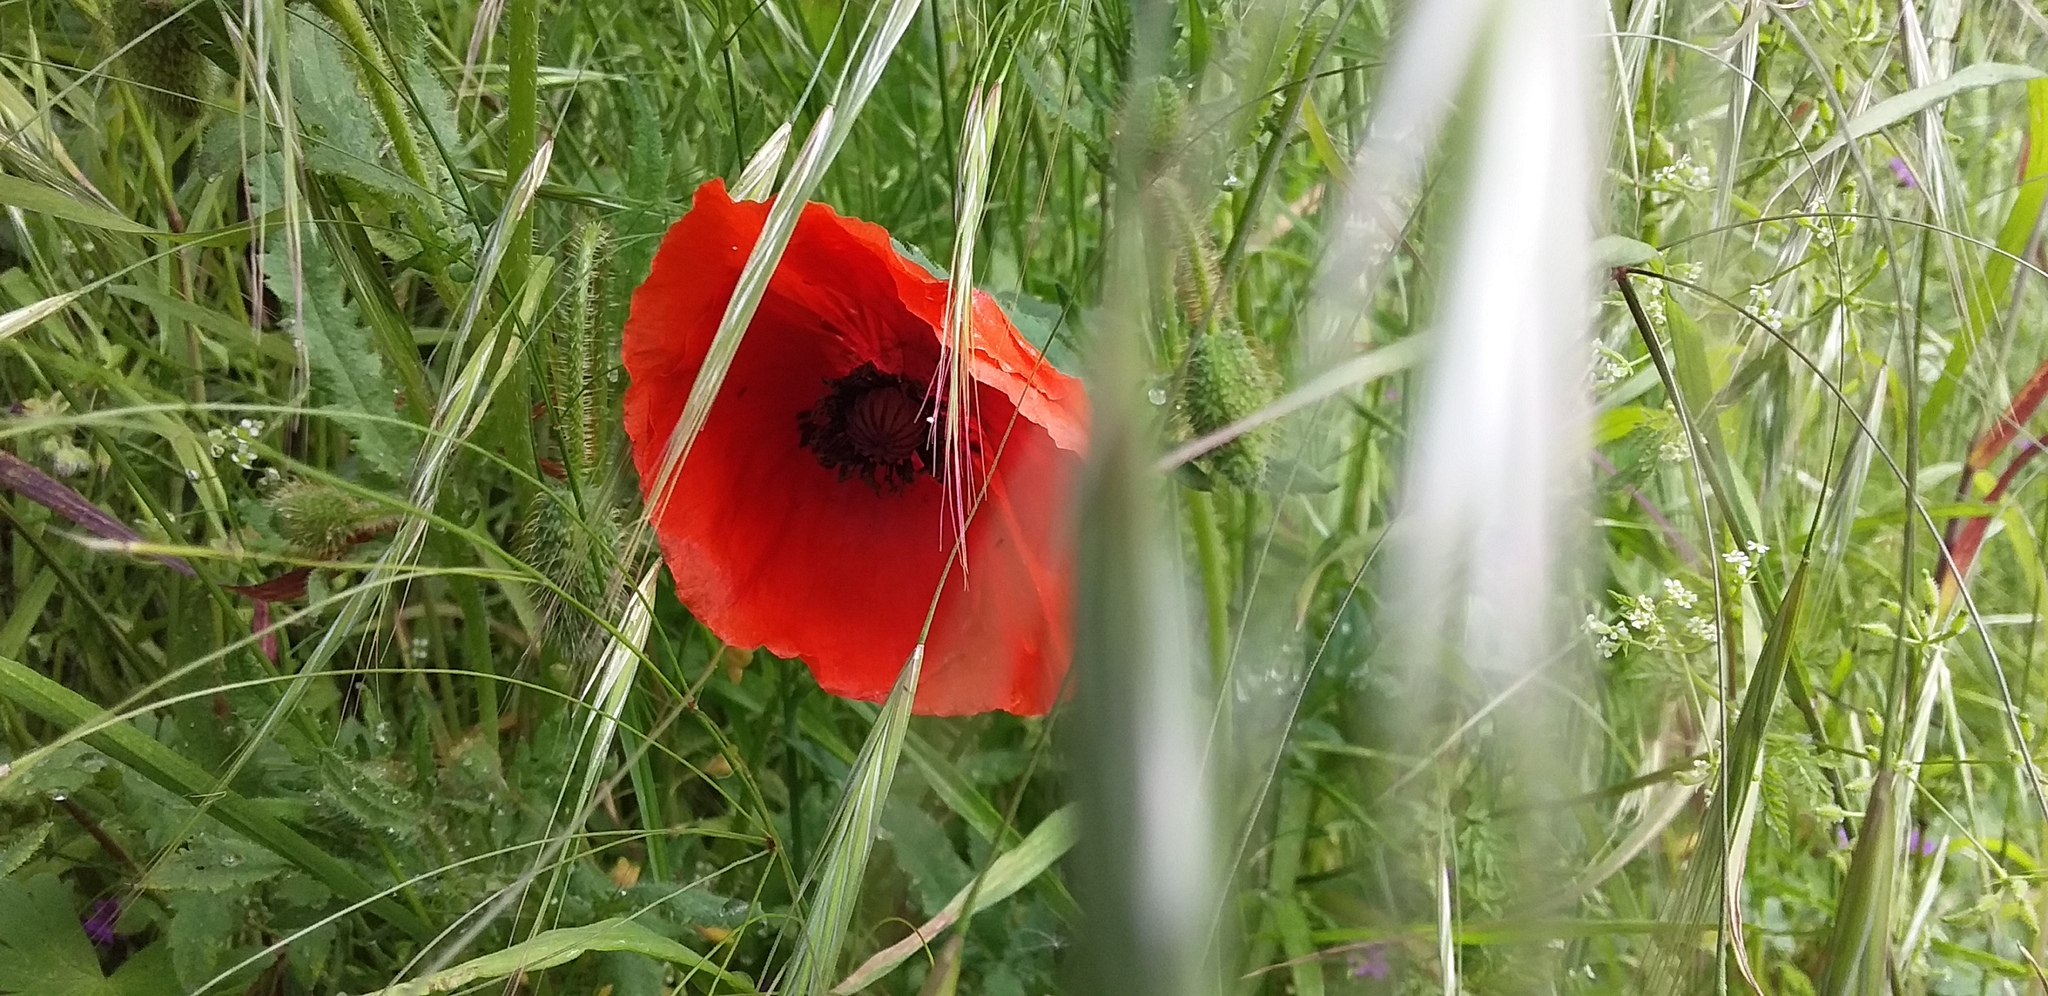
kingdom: Plantae
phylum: Tracheophyta
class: Magnoliopsida
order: Ranunculales
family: Papaveraceae
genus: Papaver
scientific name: Papaver rhoeas
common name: Corn poppy
